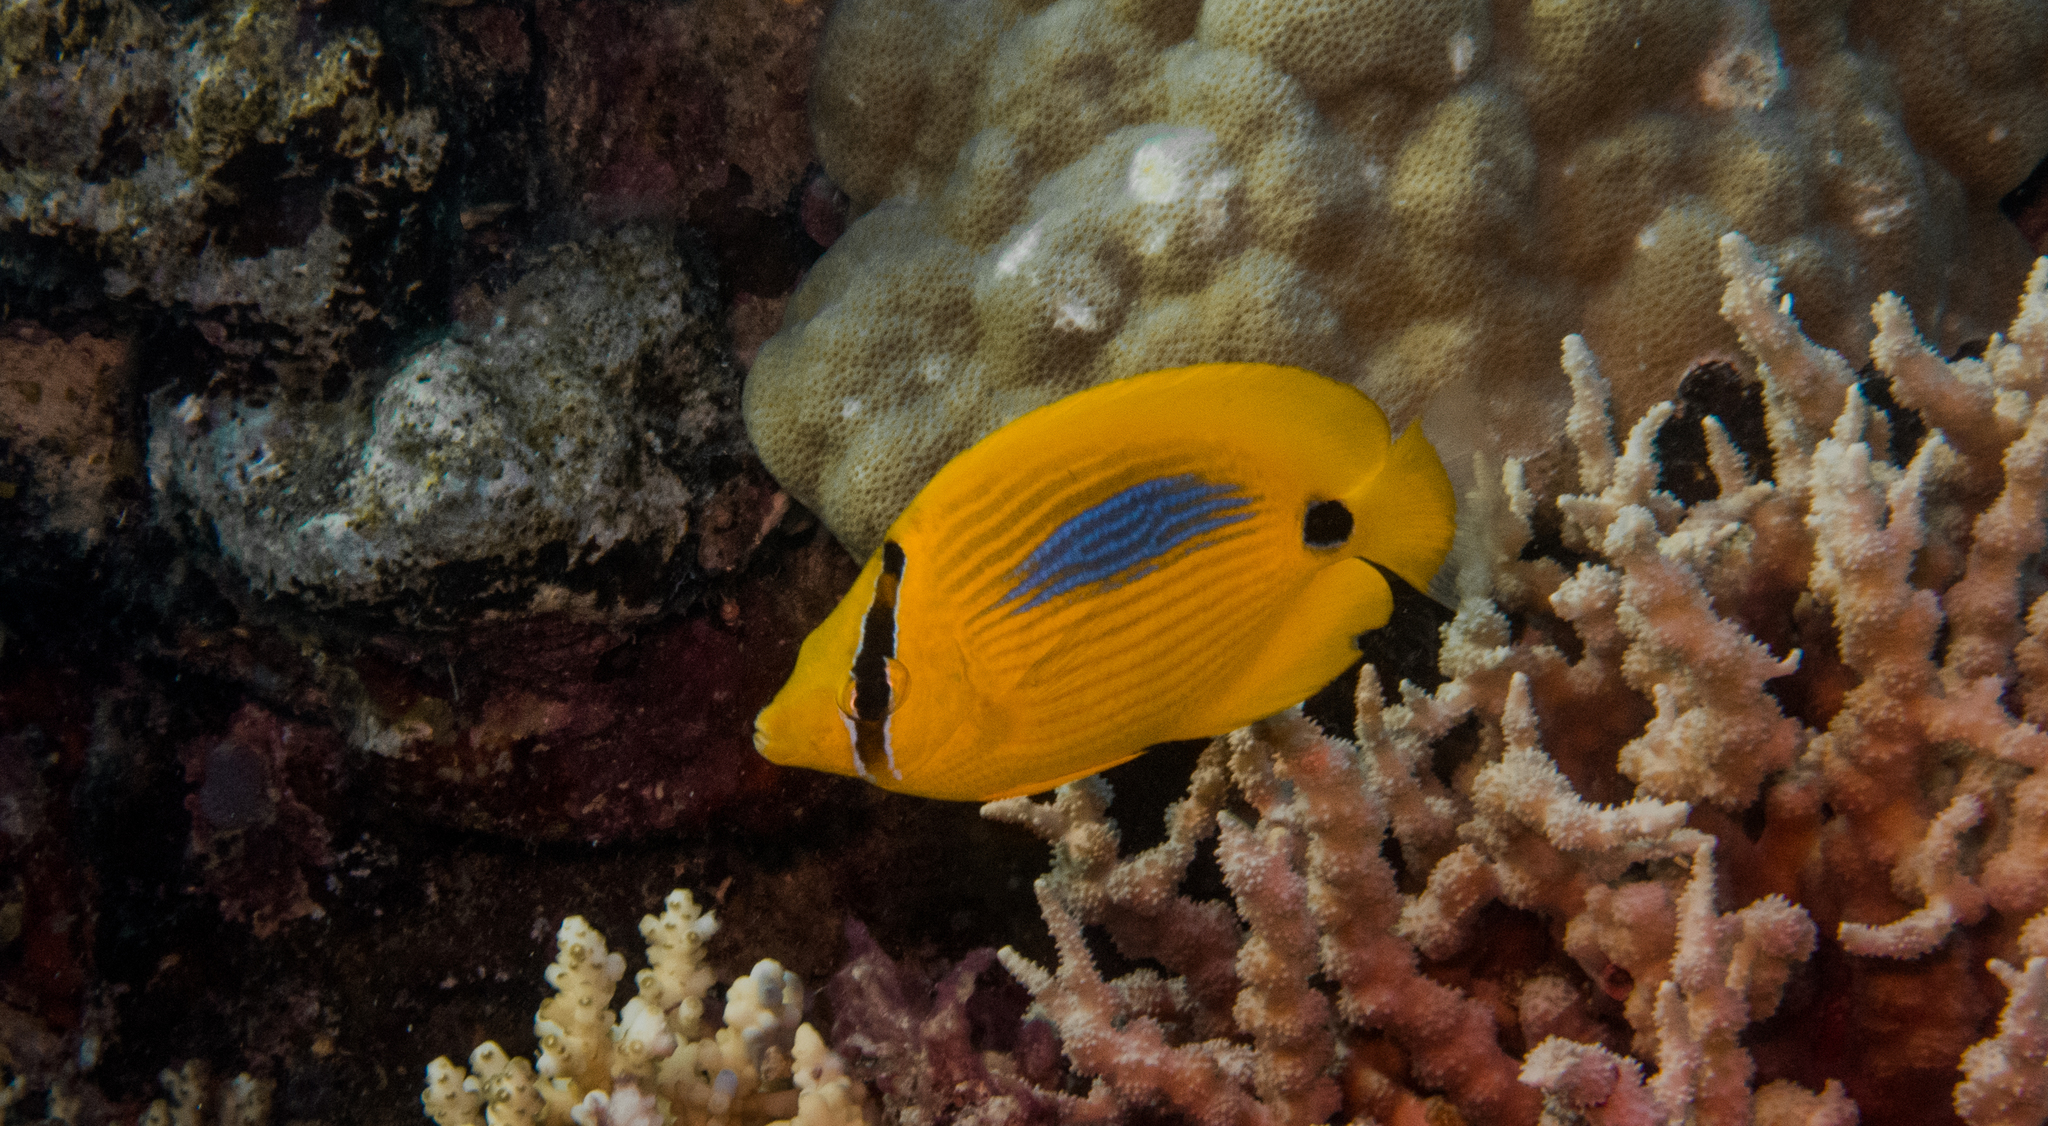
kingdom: Animalia
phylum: Chordata
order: Perciformes
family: Chaetodontidae
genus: Chaetodon
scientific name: Chaetodon plebeius
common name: Bluespot butterflyfish
